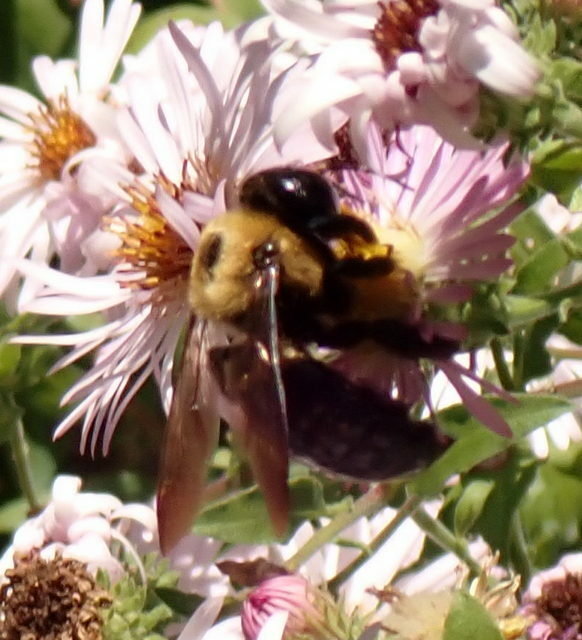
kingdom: Animalia
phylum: Arthropoda
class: Insecta
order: Hymenoptera
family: Apidae
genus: Xylocopa
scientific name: Xylocopa virginica
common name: Carpenter bee
